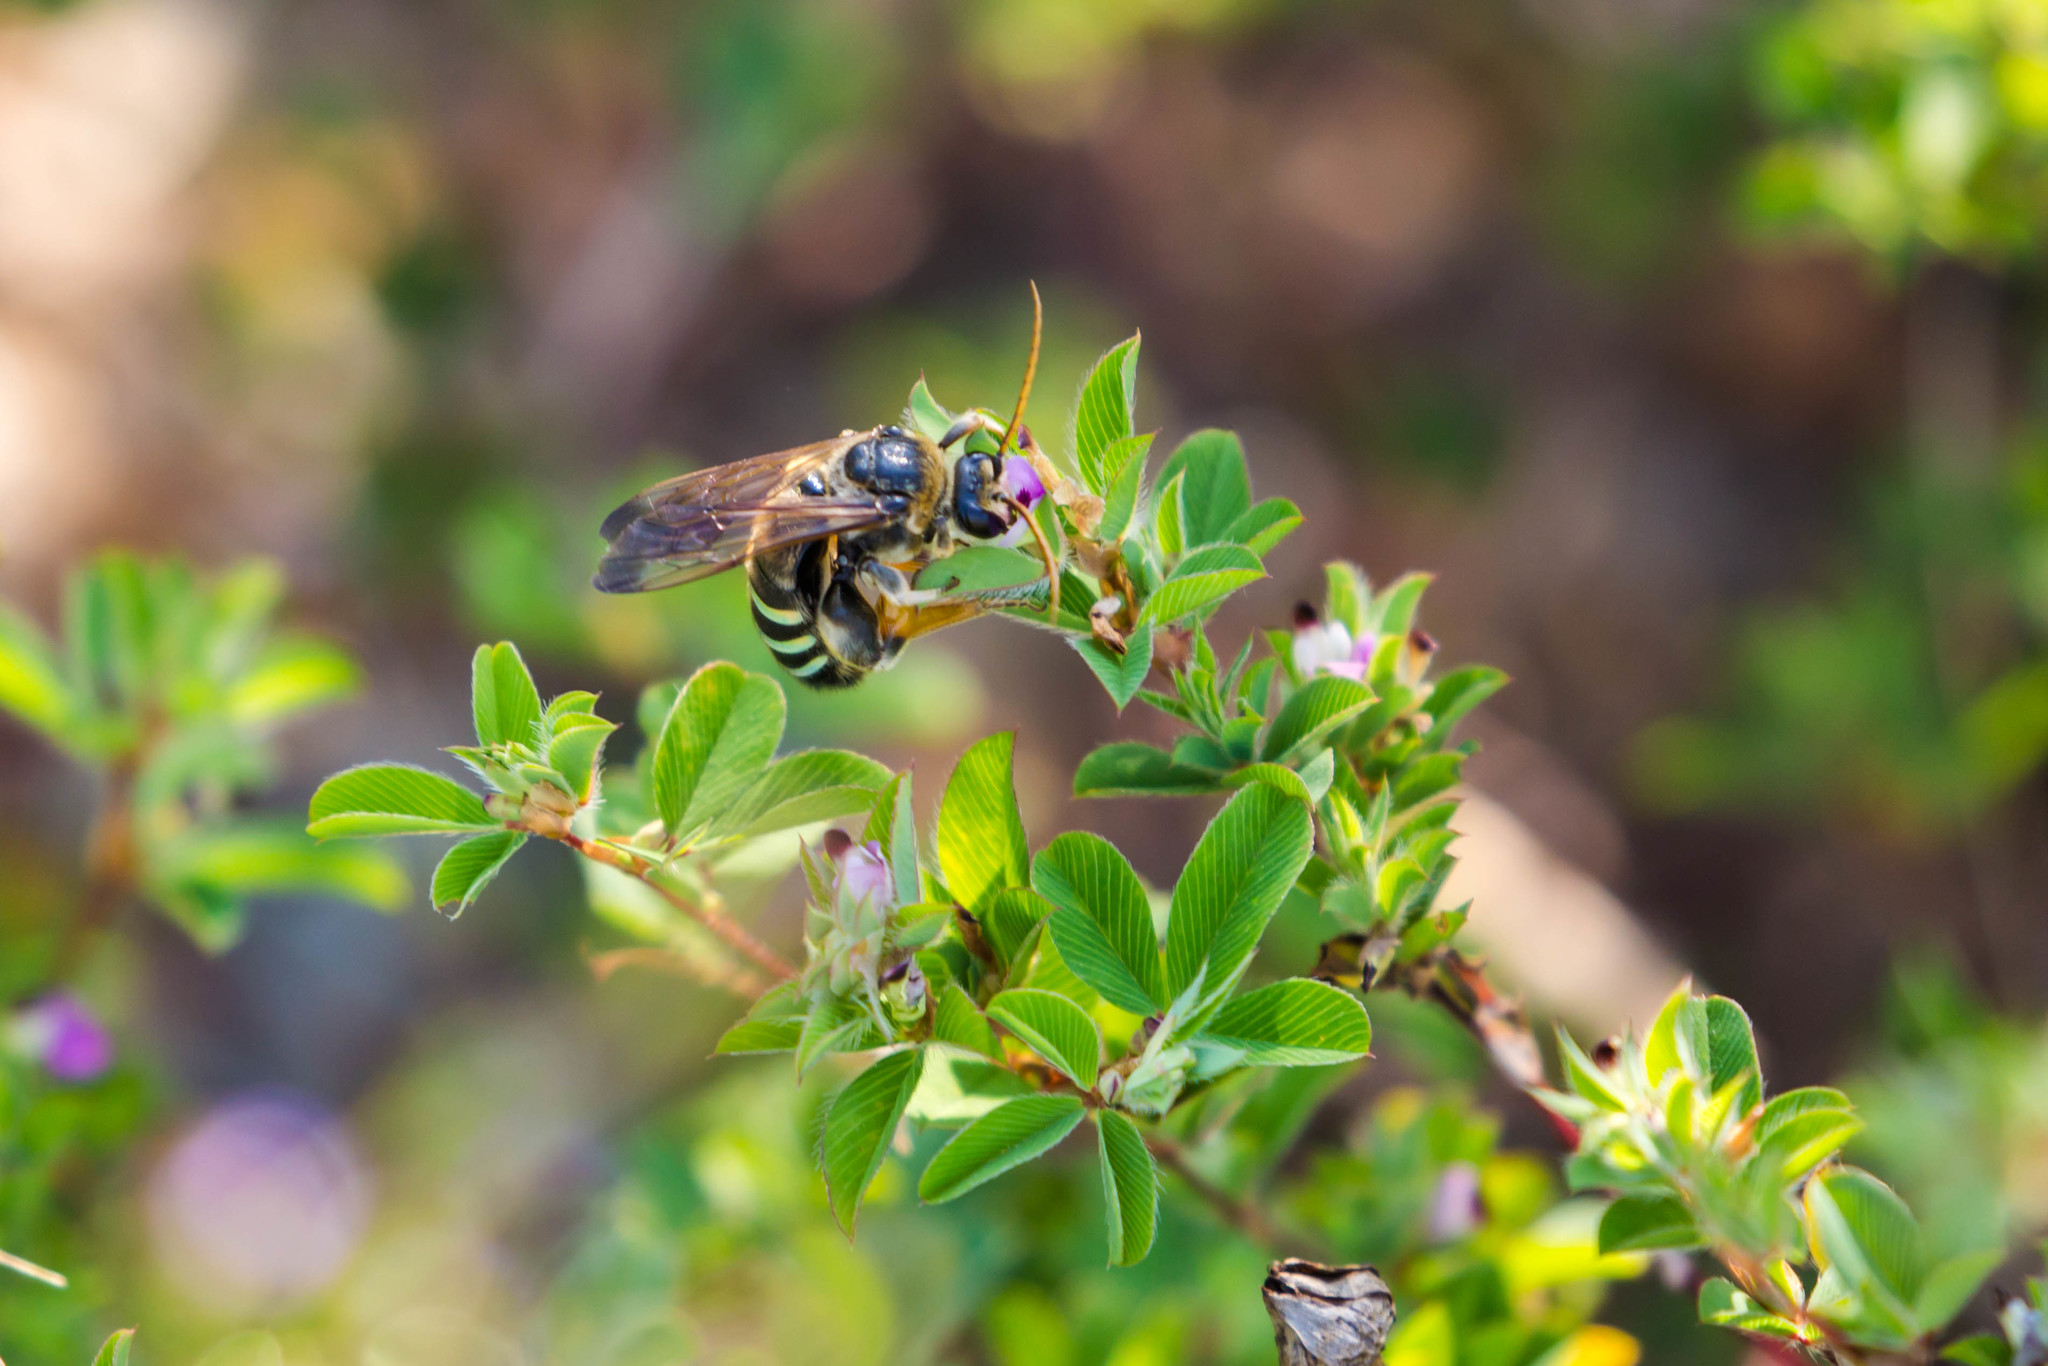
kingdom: Animalia
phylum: Arthropoda
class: Insecta
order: Hymenoptera
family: Halictidae
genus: Nomia
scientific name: Nomia nortoni
